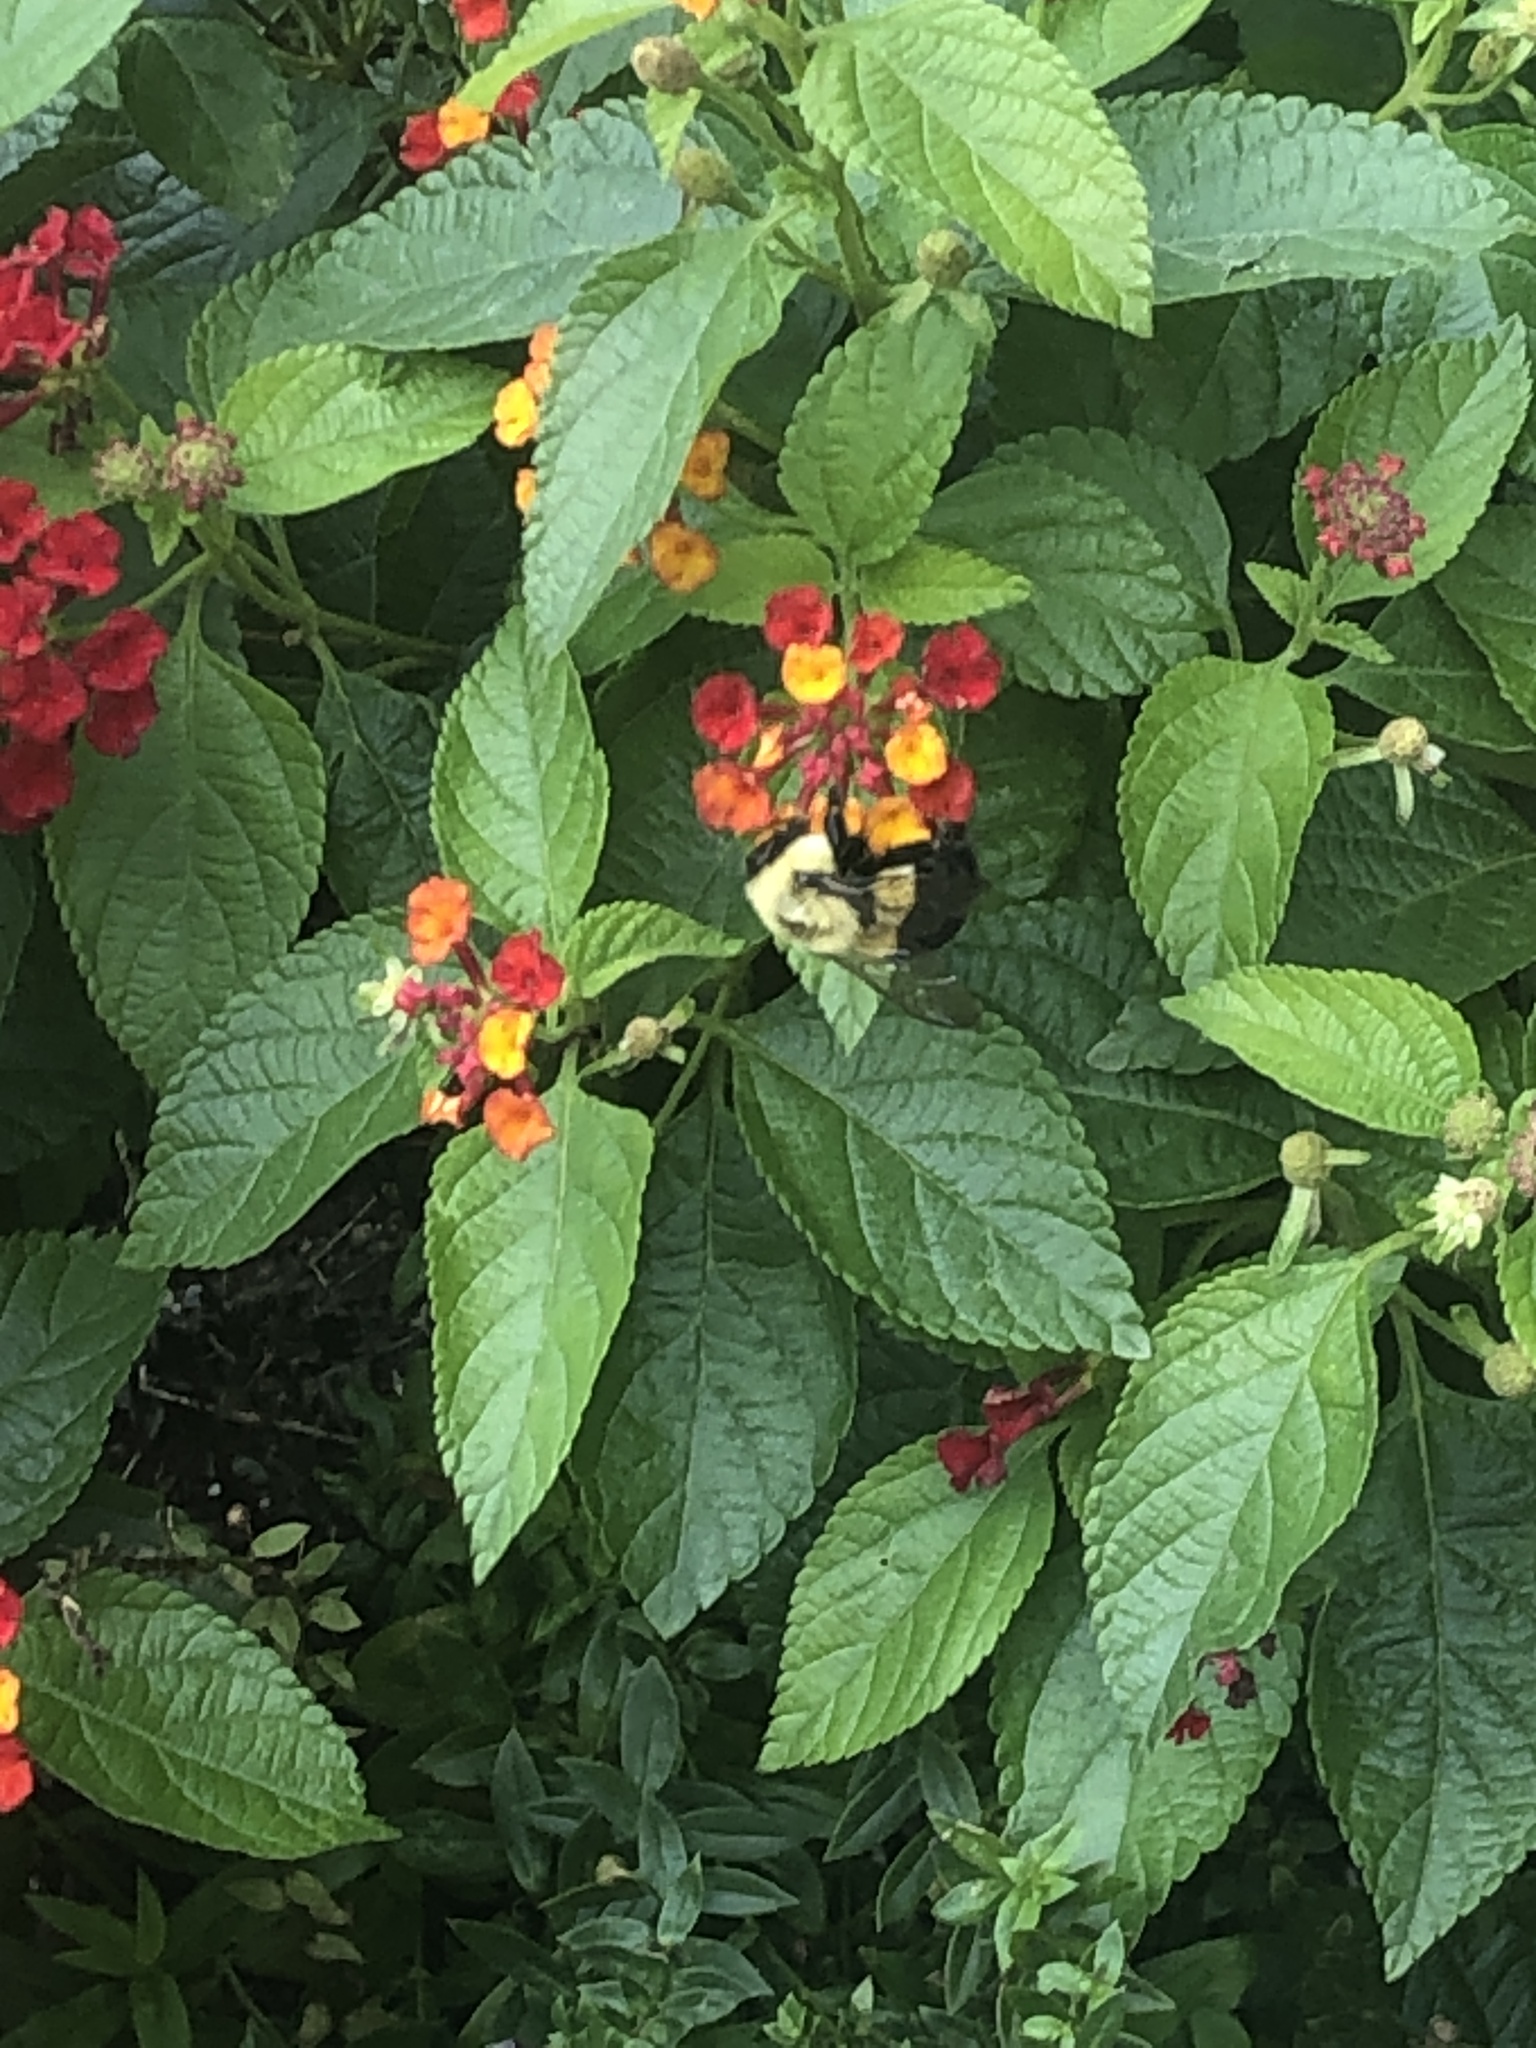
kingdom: Animalia
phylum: Arthropoda
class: Insecta
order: Hymenoptera
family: Apidae
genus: Bombus
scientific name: Bombus impatiens
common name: Common eastern bumble bee
